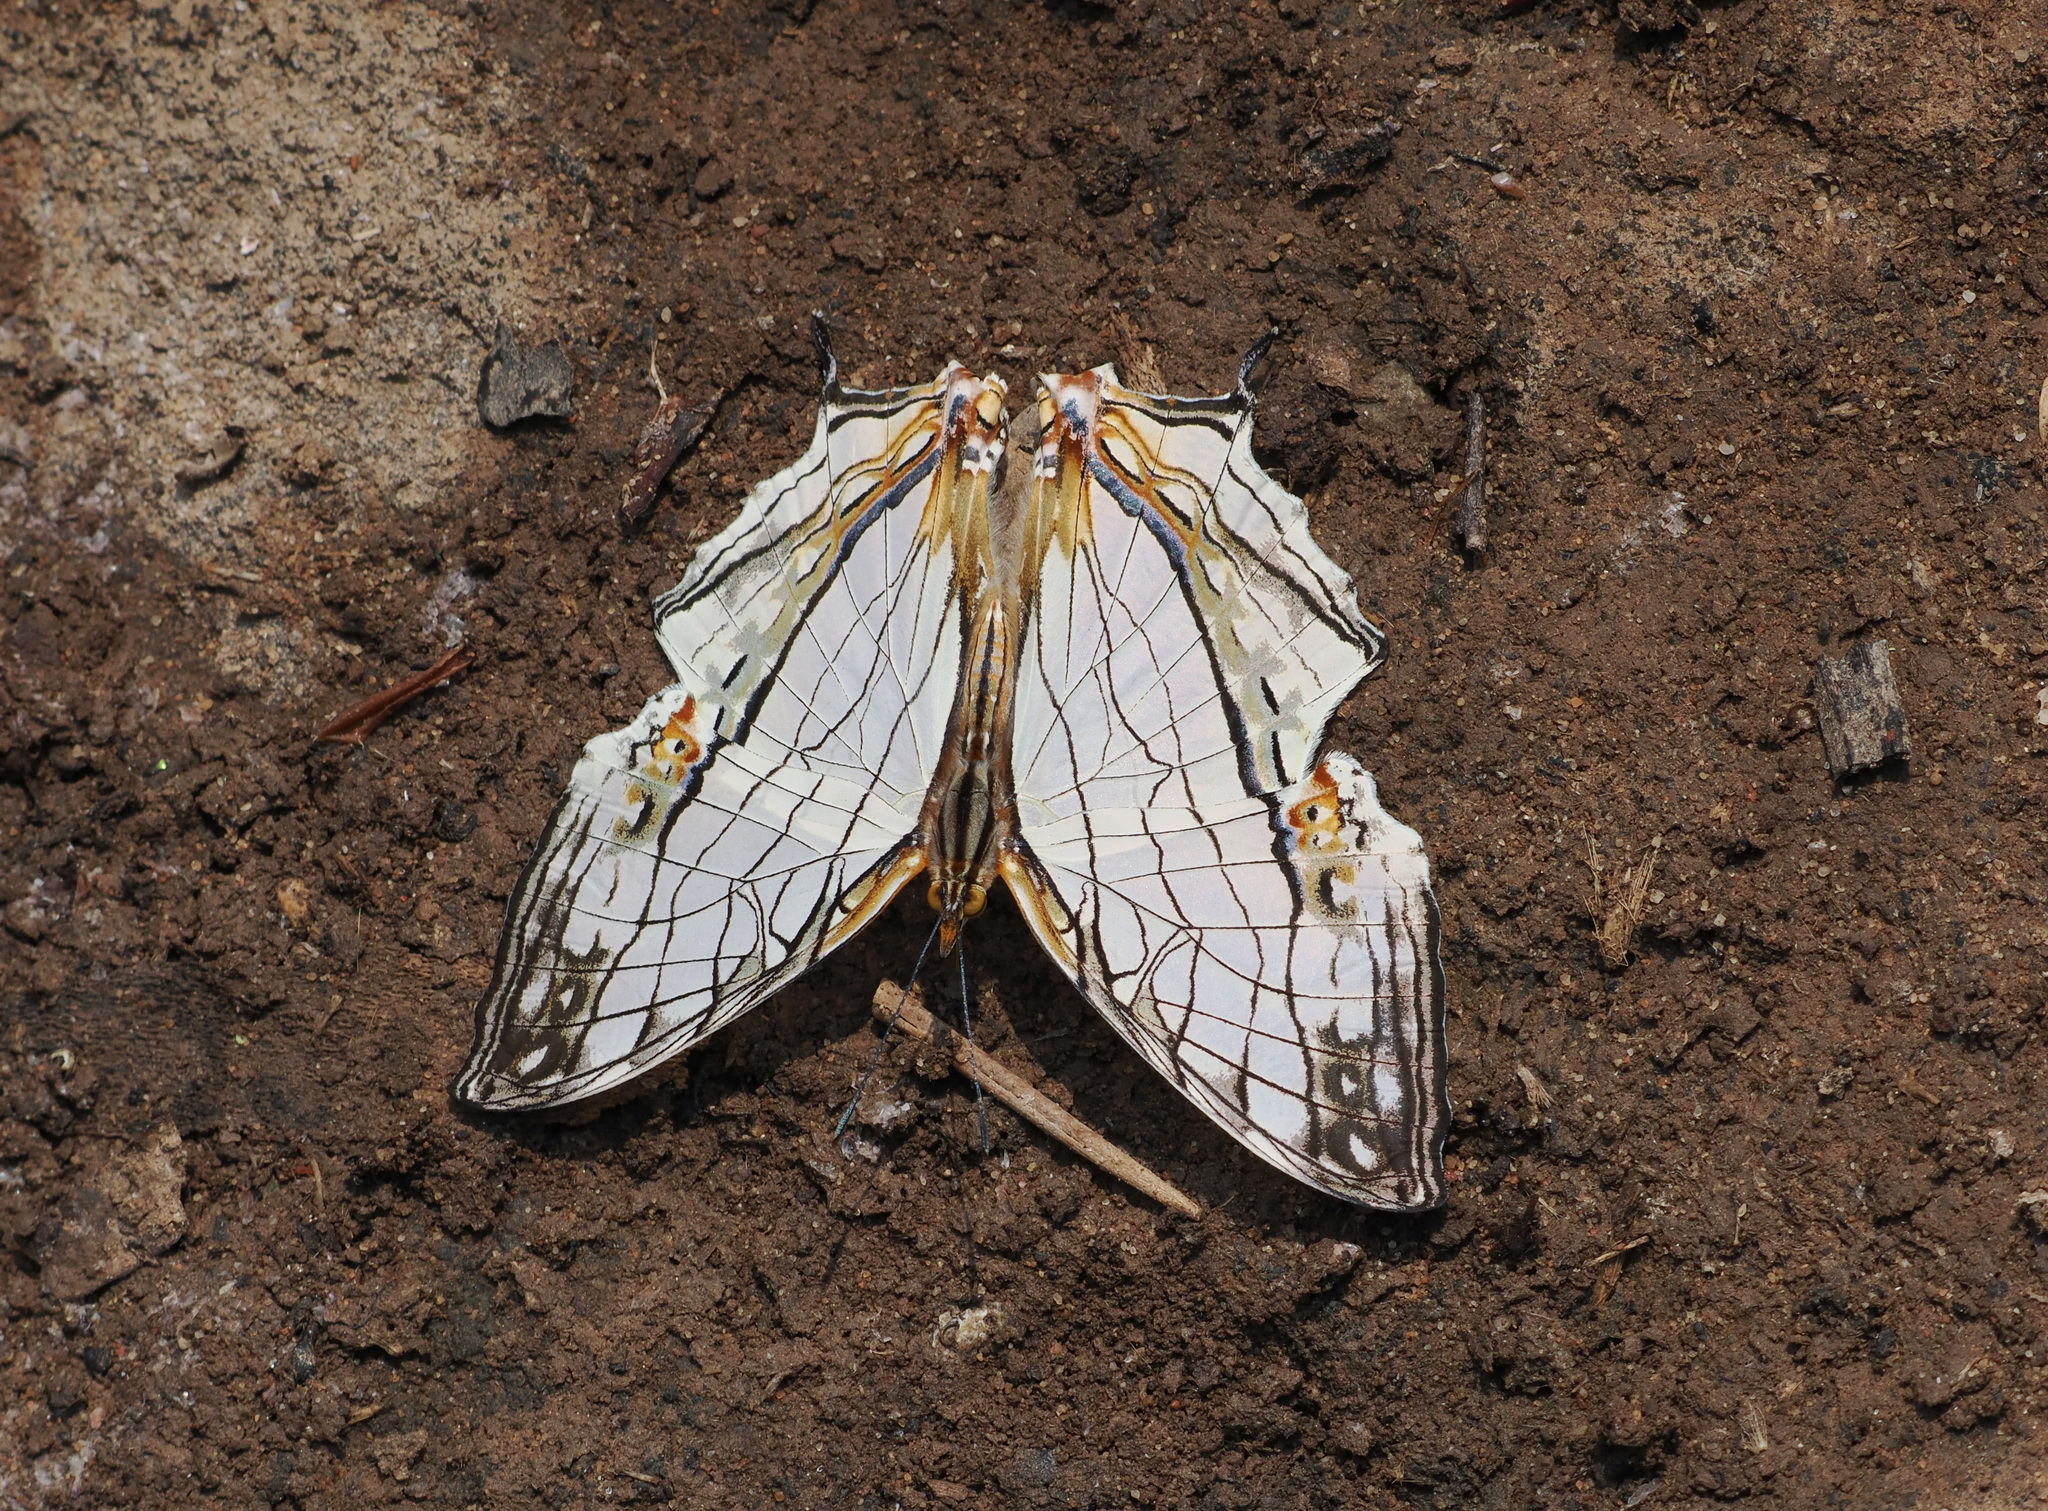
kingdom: Animalia
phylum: Arthropoda
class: Insecta
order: Lepidoptera
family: Nymphalidae
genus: Cyrestis
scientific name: Cyrestis thyodamas
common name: Common mapwing
